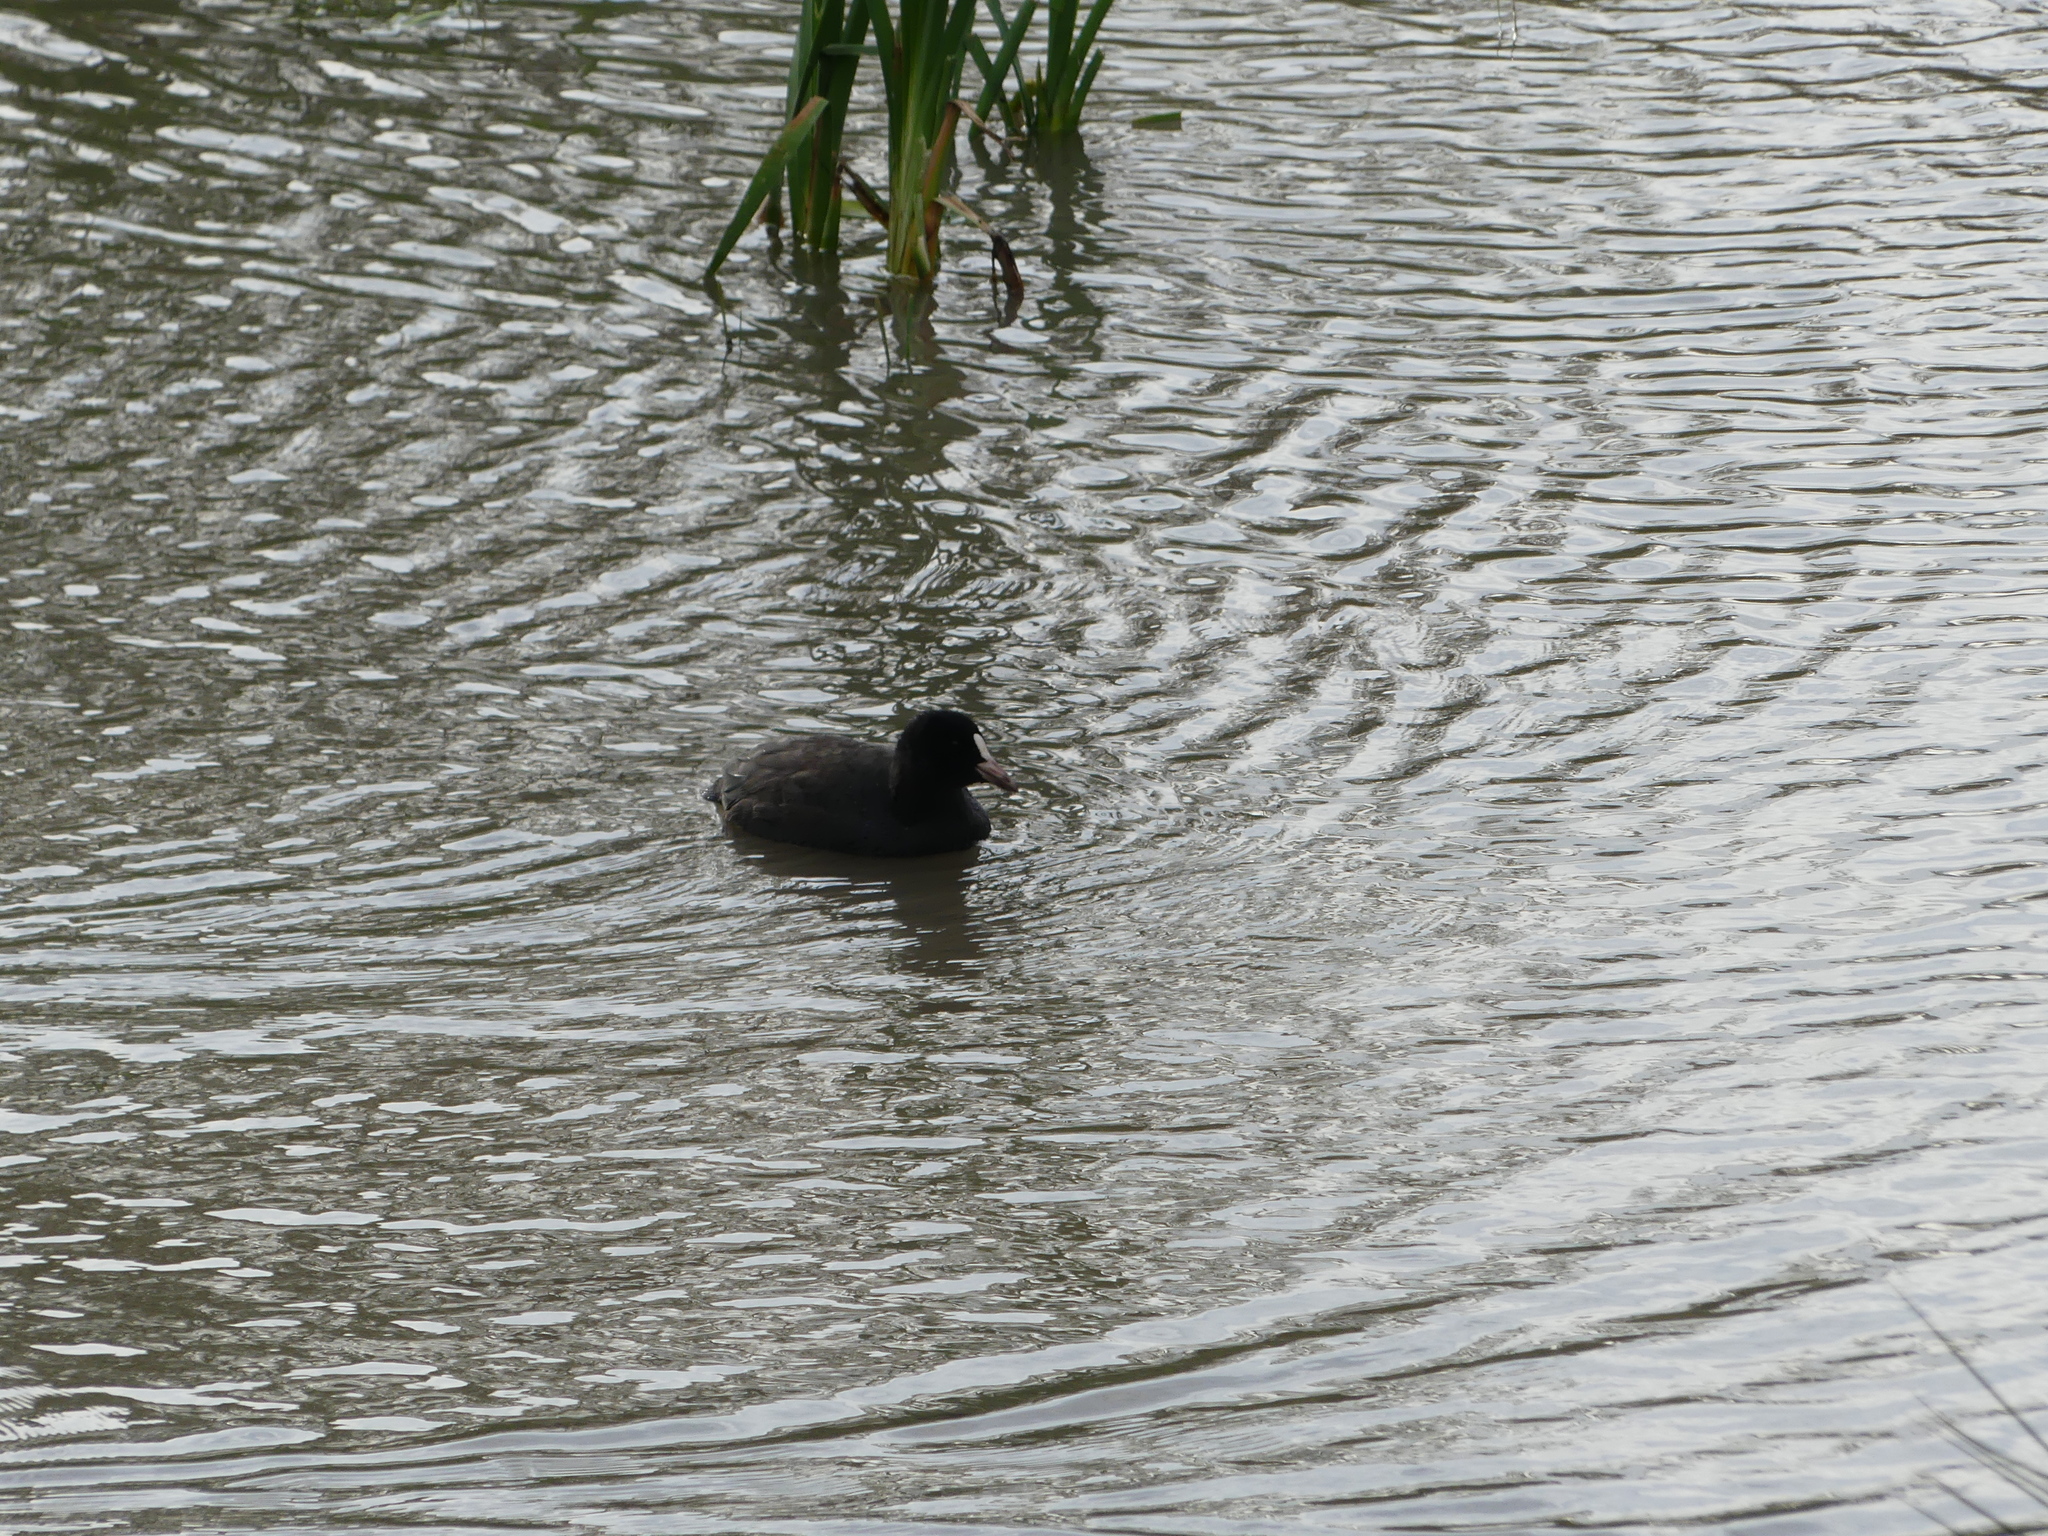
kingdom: Animalia
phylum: Chordata
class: Aves
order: Gruiformes
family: Rallidae
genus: Fulica
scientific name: Fulica atra
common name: Eurasian coot
